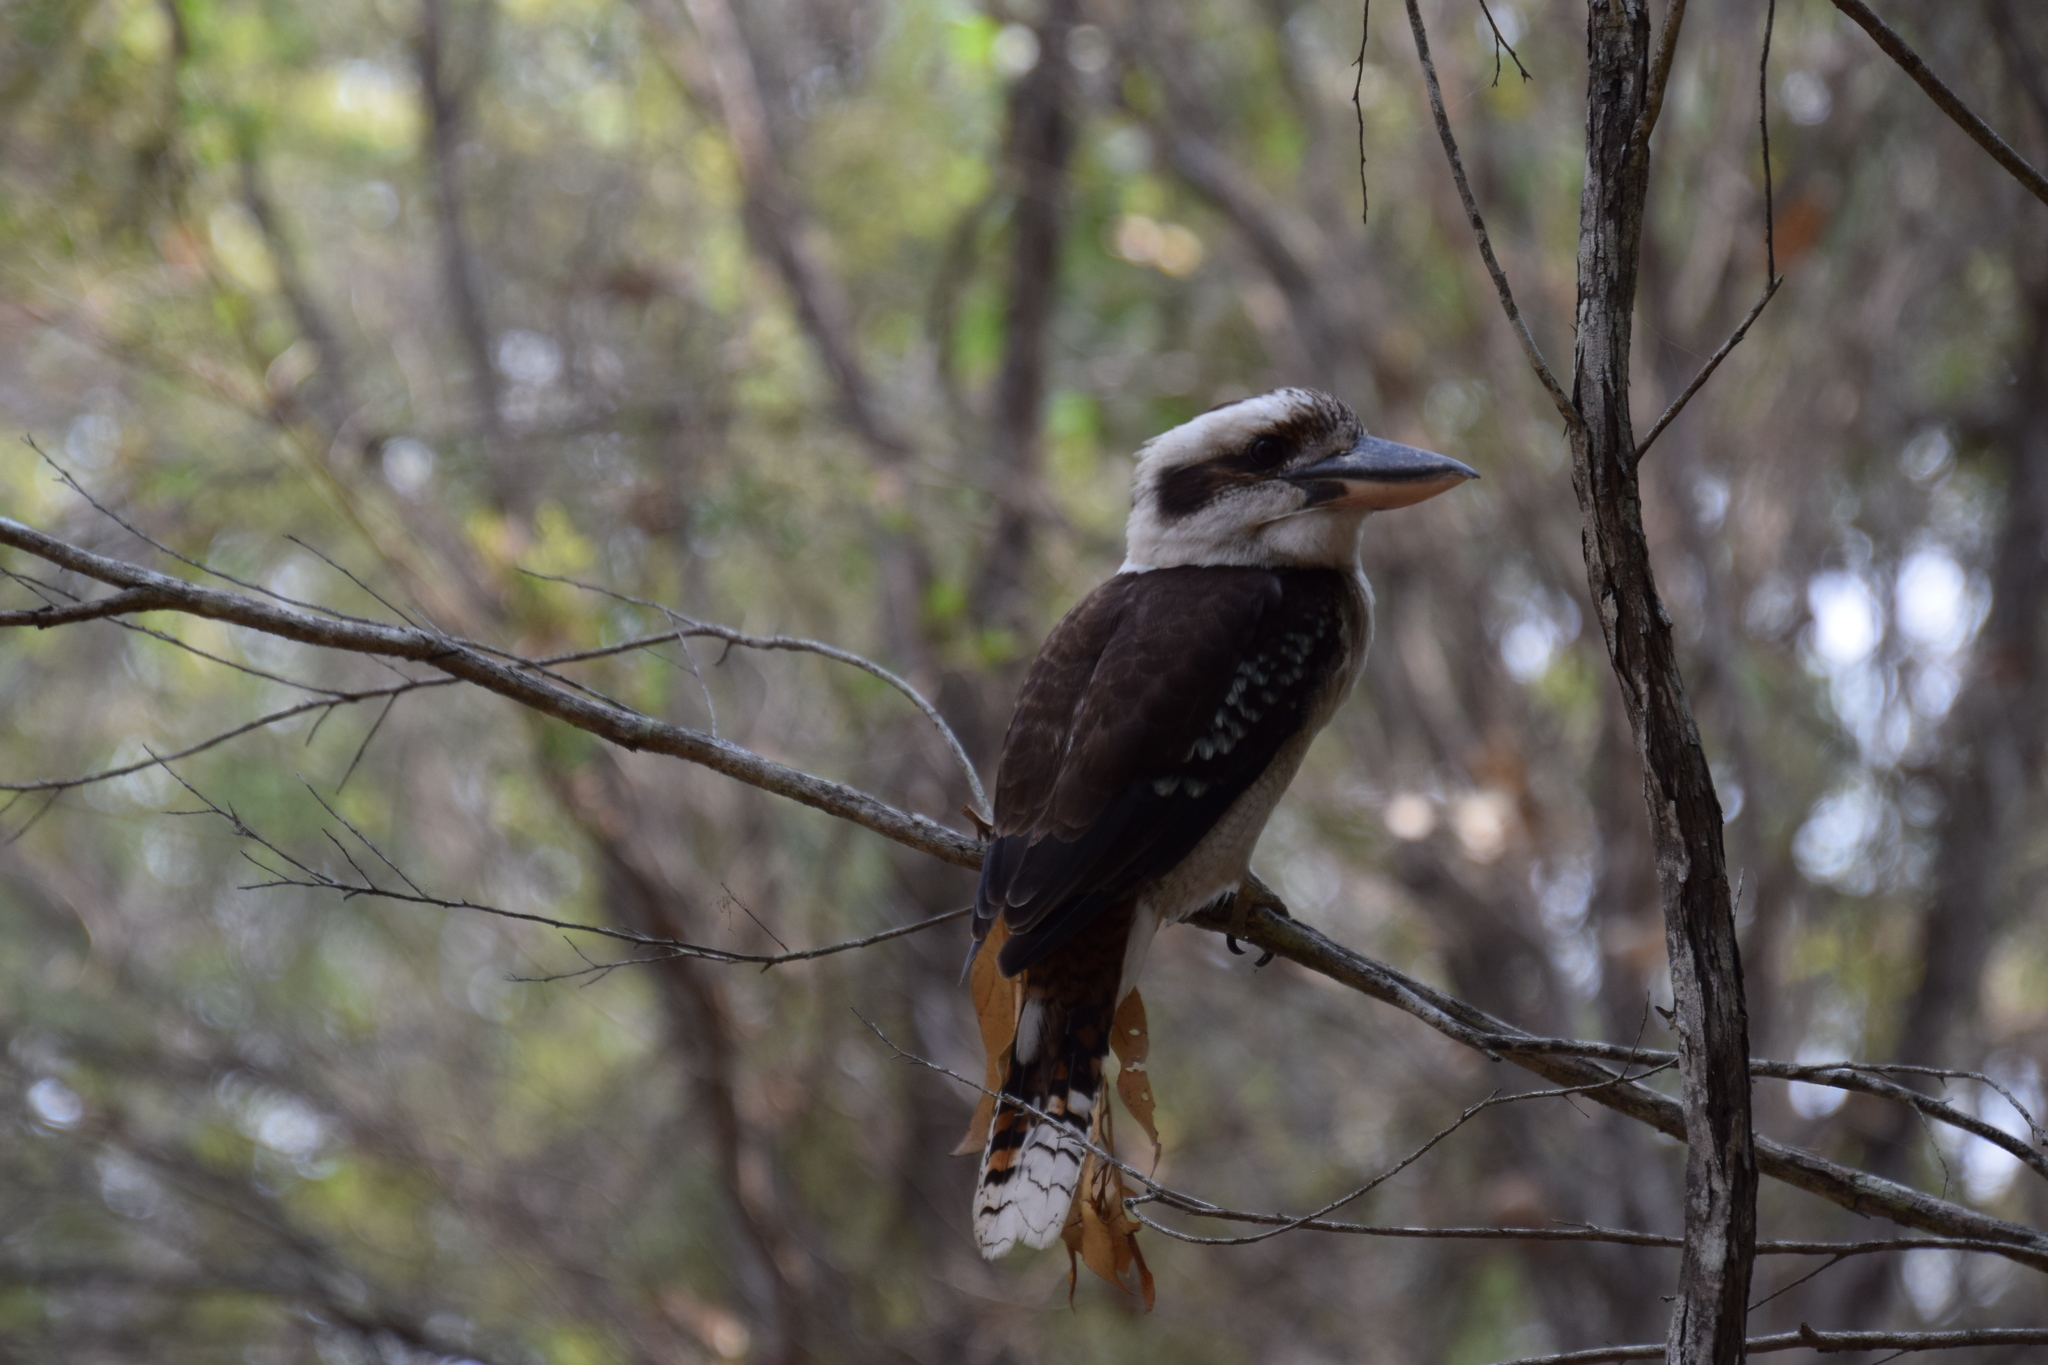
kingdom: Animalia
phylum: Chordata
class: Aves
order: Coraciiformes
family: Alcedinidae
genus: Dacelo
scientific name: Dacelo novaeguineae
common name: Laughing kookaburra
